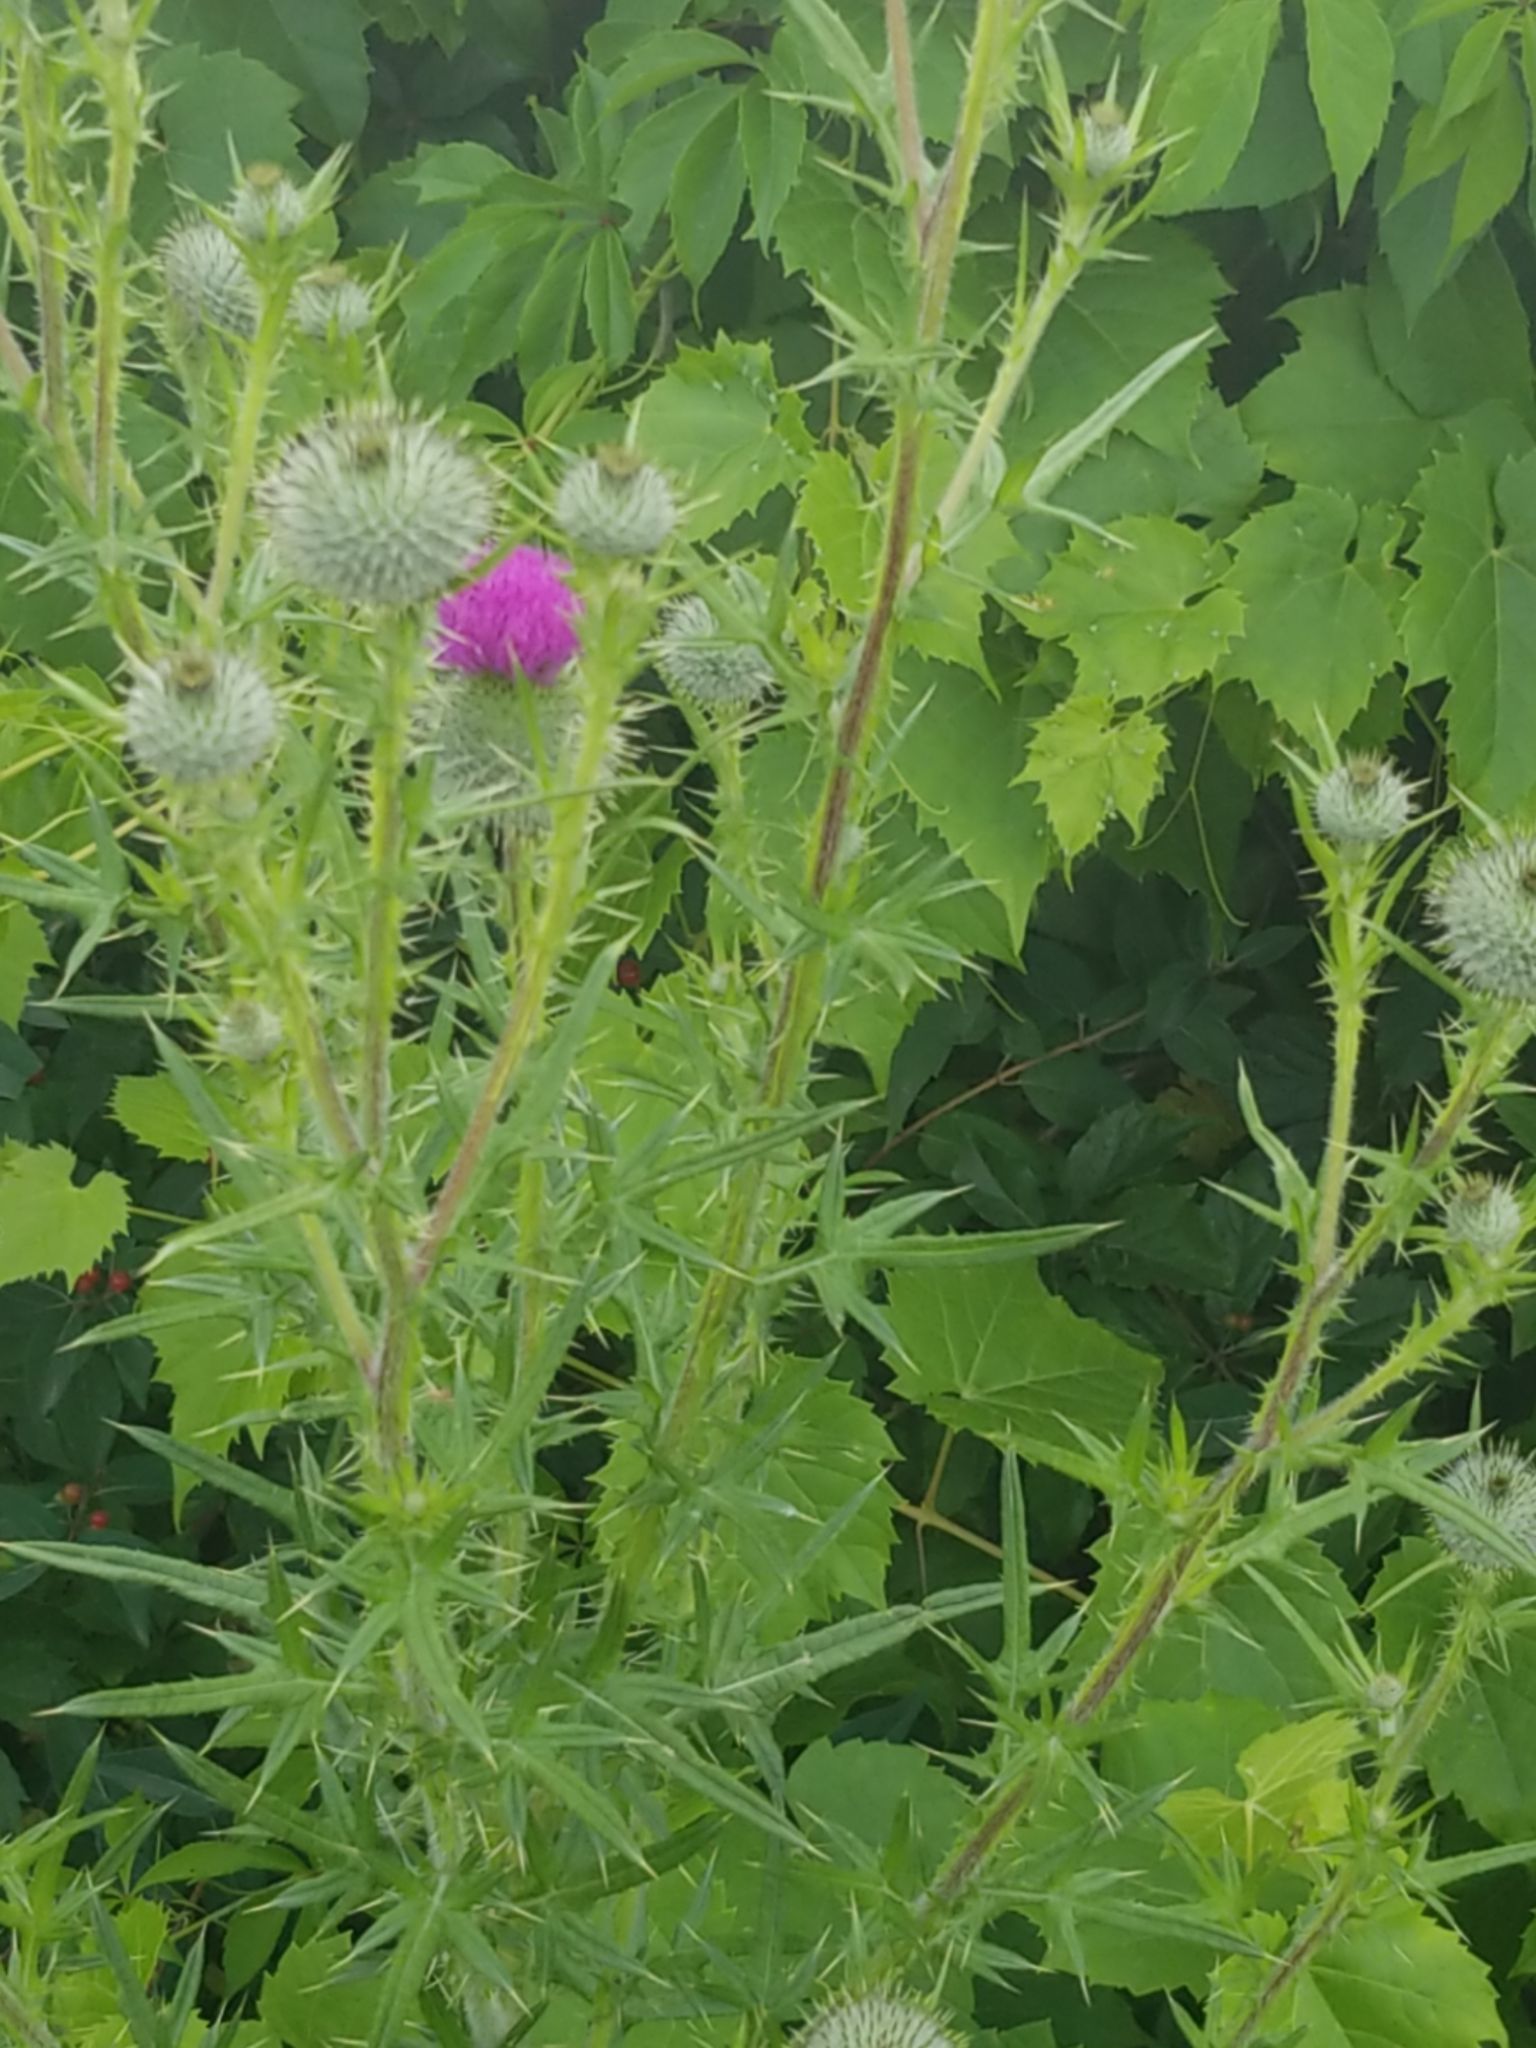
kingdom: Plantae
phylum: Tracheophyta
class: Magnoliopsida
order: Asterales
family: Asteraceae
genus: Cirsium
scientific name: Cirsium vulgare
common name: Bull thistle
